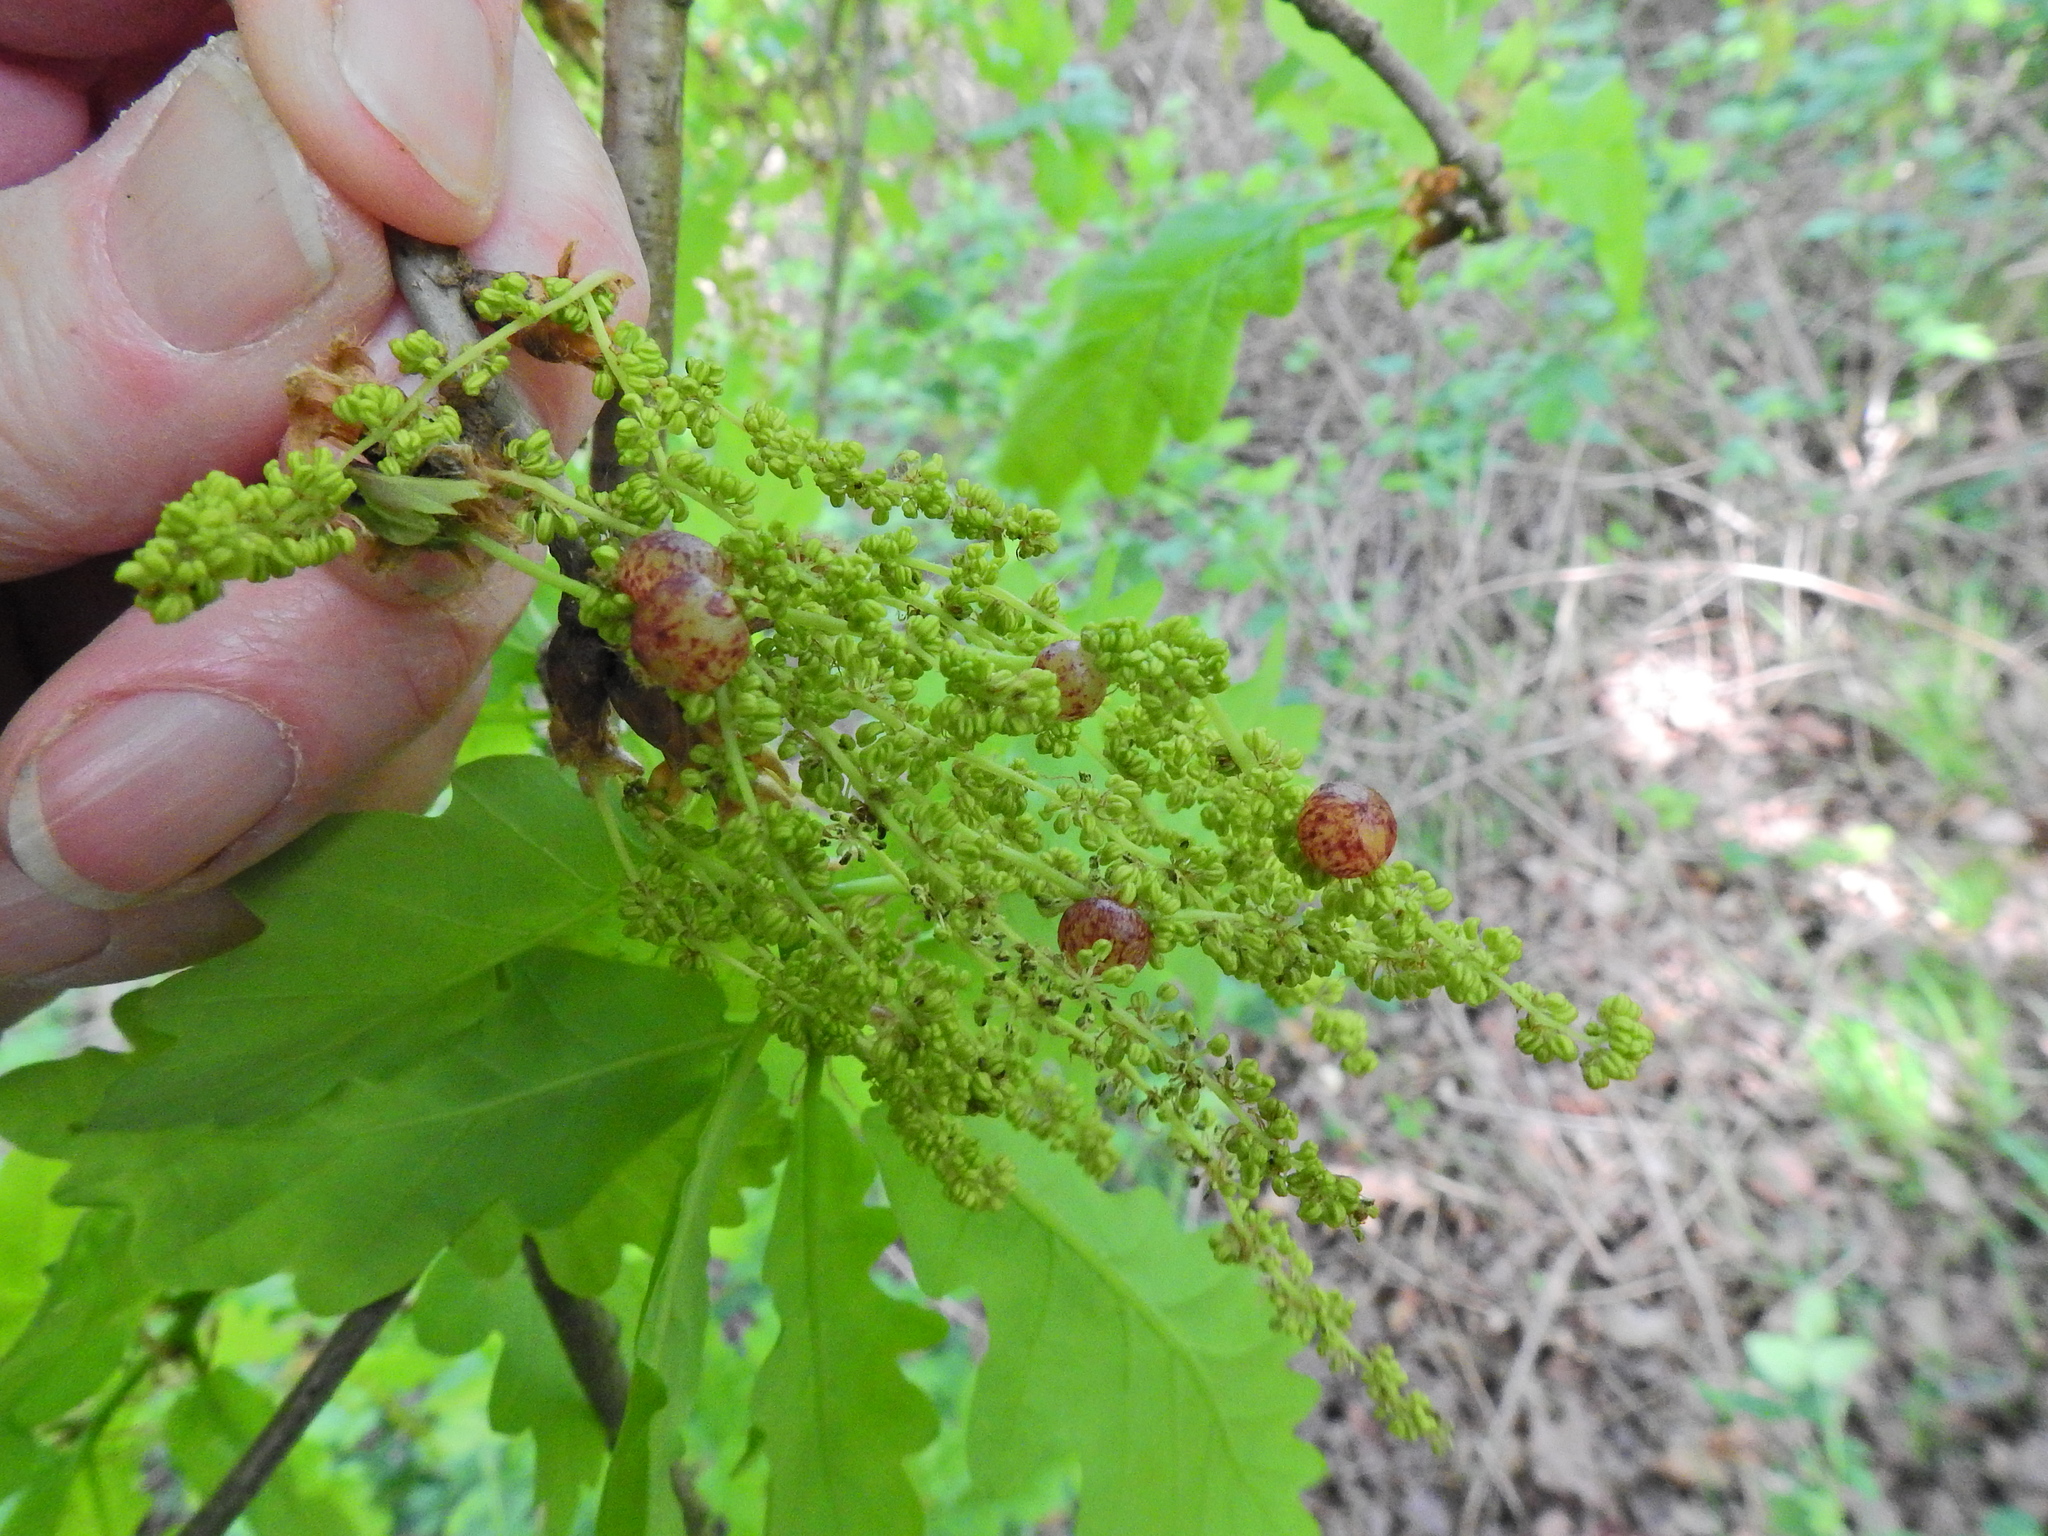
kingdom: Animalia
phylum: Arthropoda
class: Insecta
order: Hymenoptera
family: Cynipidae
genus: Neuroterus
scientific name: Neuroterus quercusbaccarum
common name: Common spangle gall
